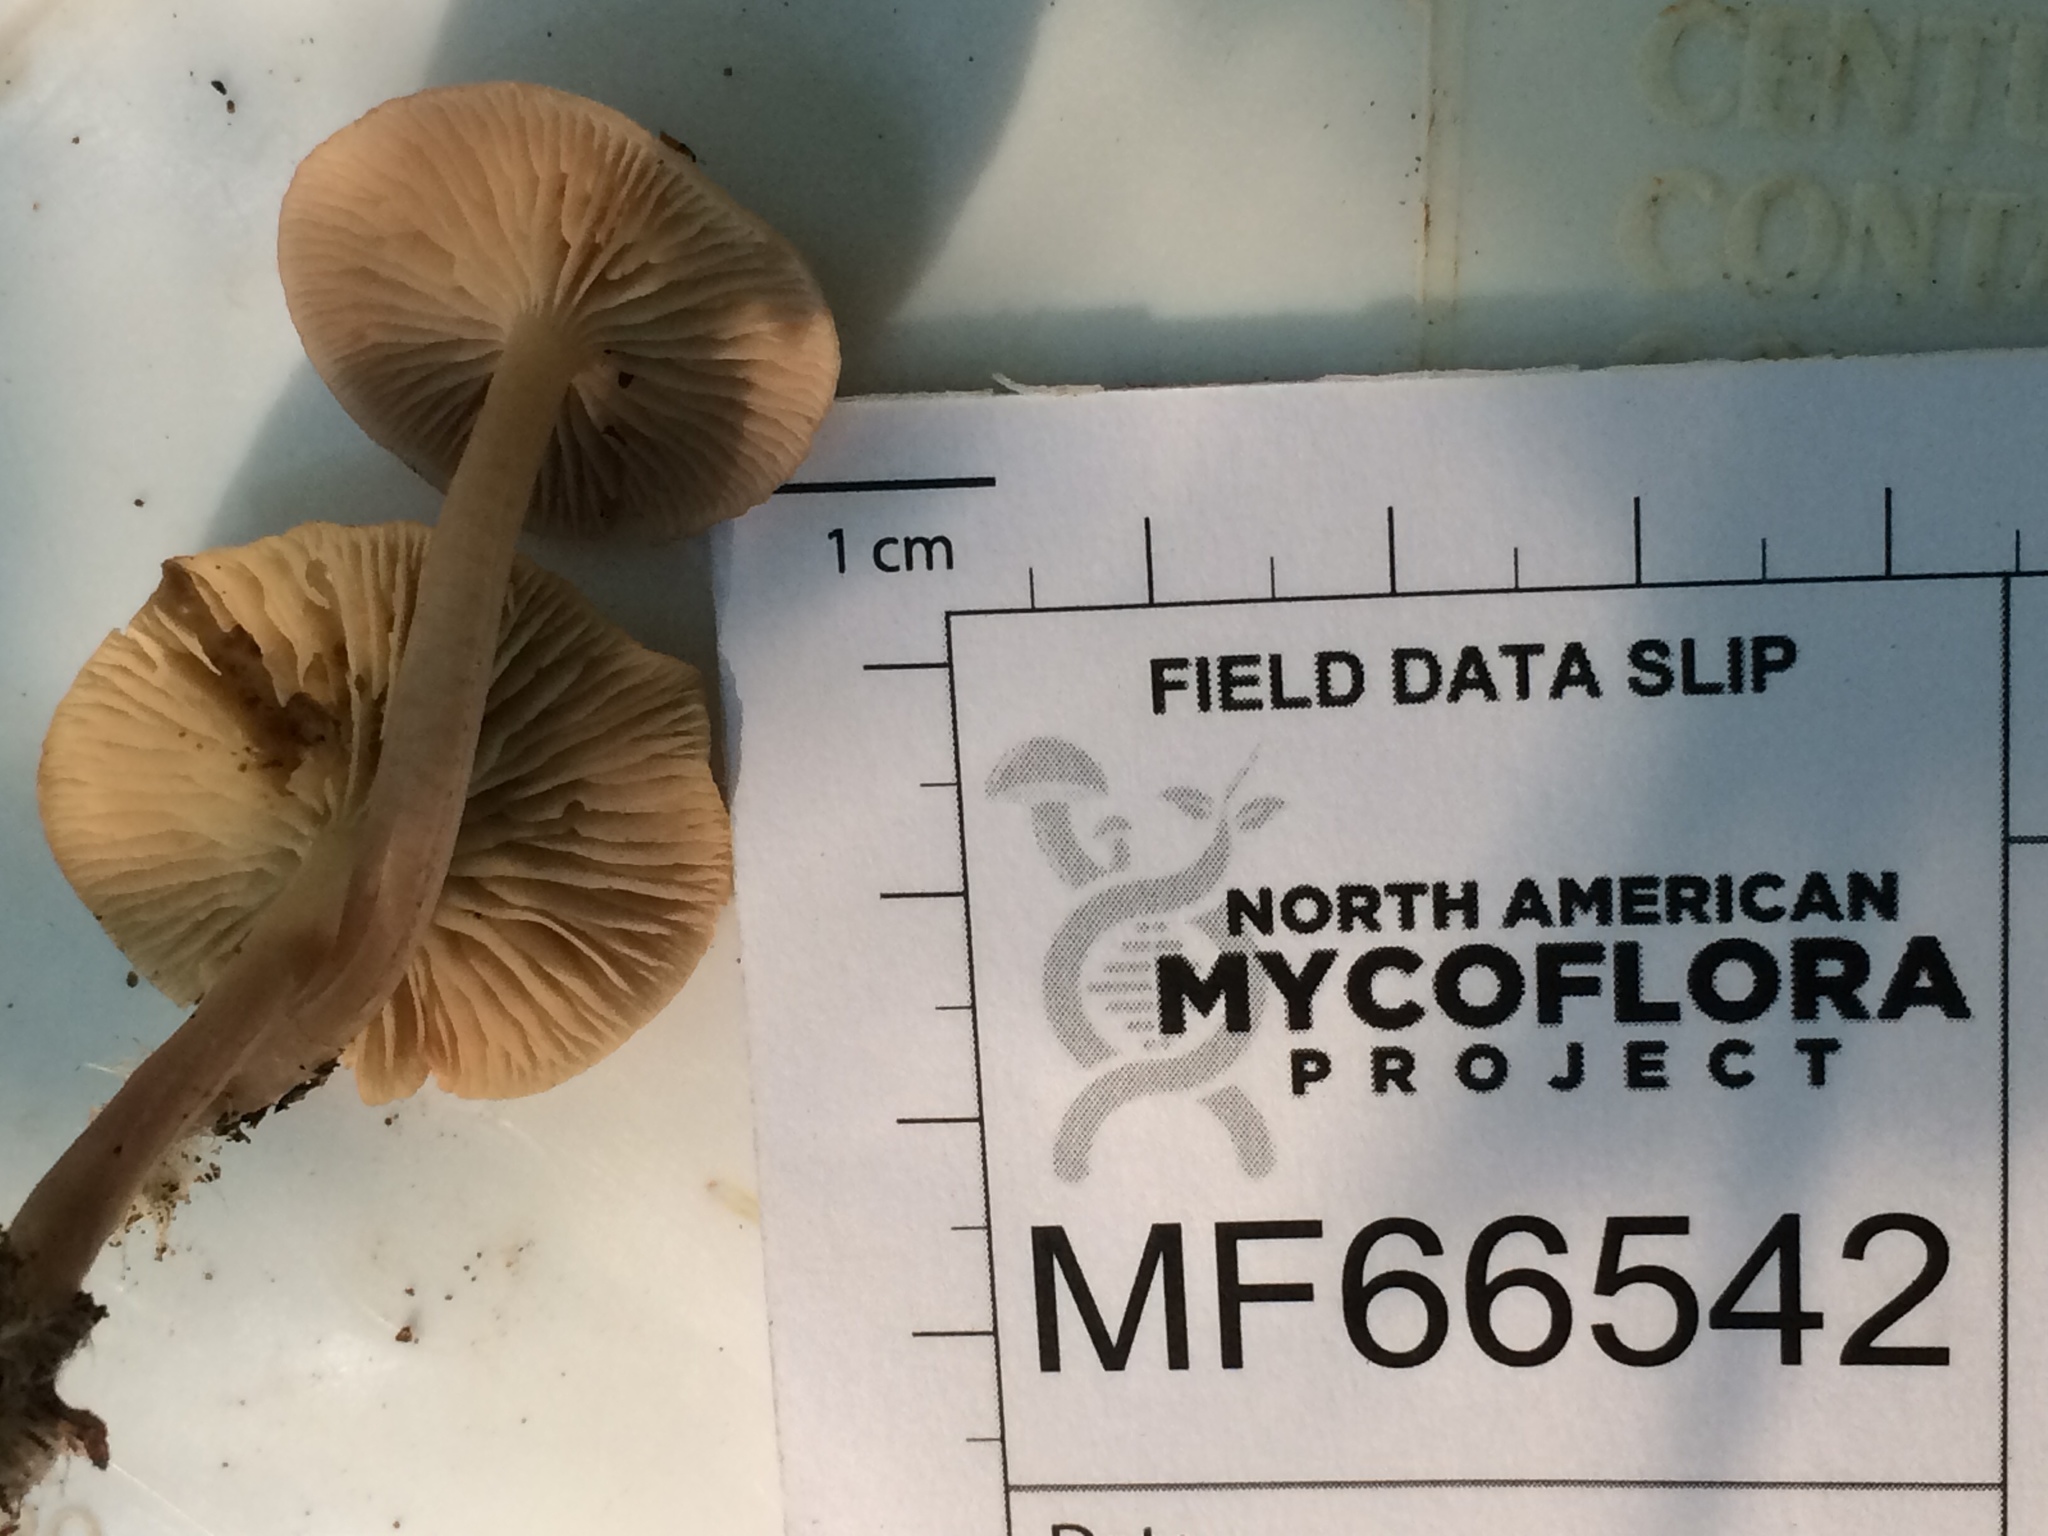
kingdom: Fungi
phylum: Basidiomycota
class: Agaricomycetes
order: Agaricales
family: Mycenaceae
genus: Mycena
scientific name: Mycena pearsoniana
